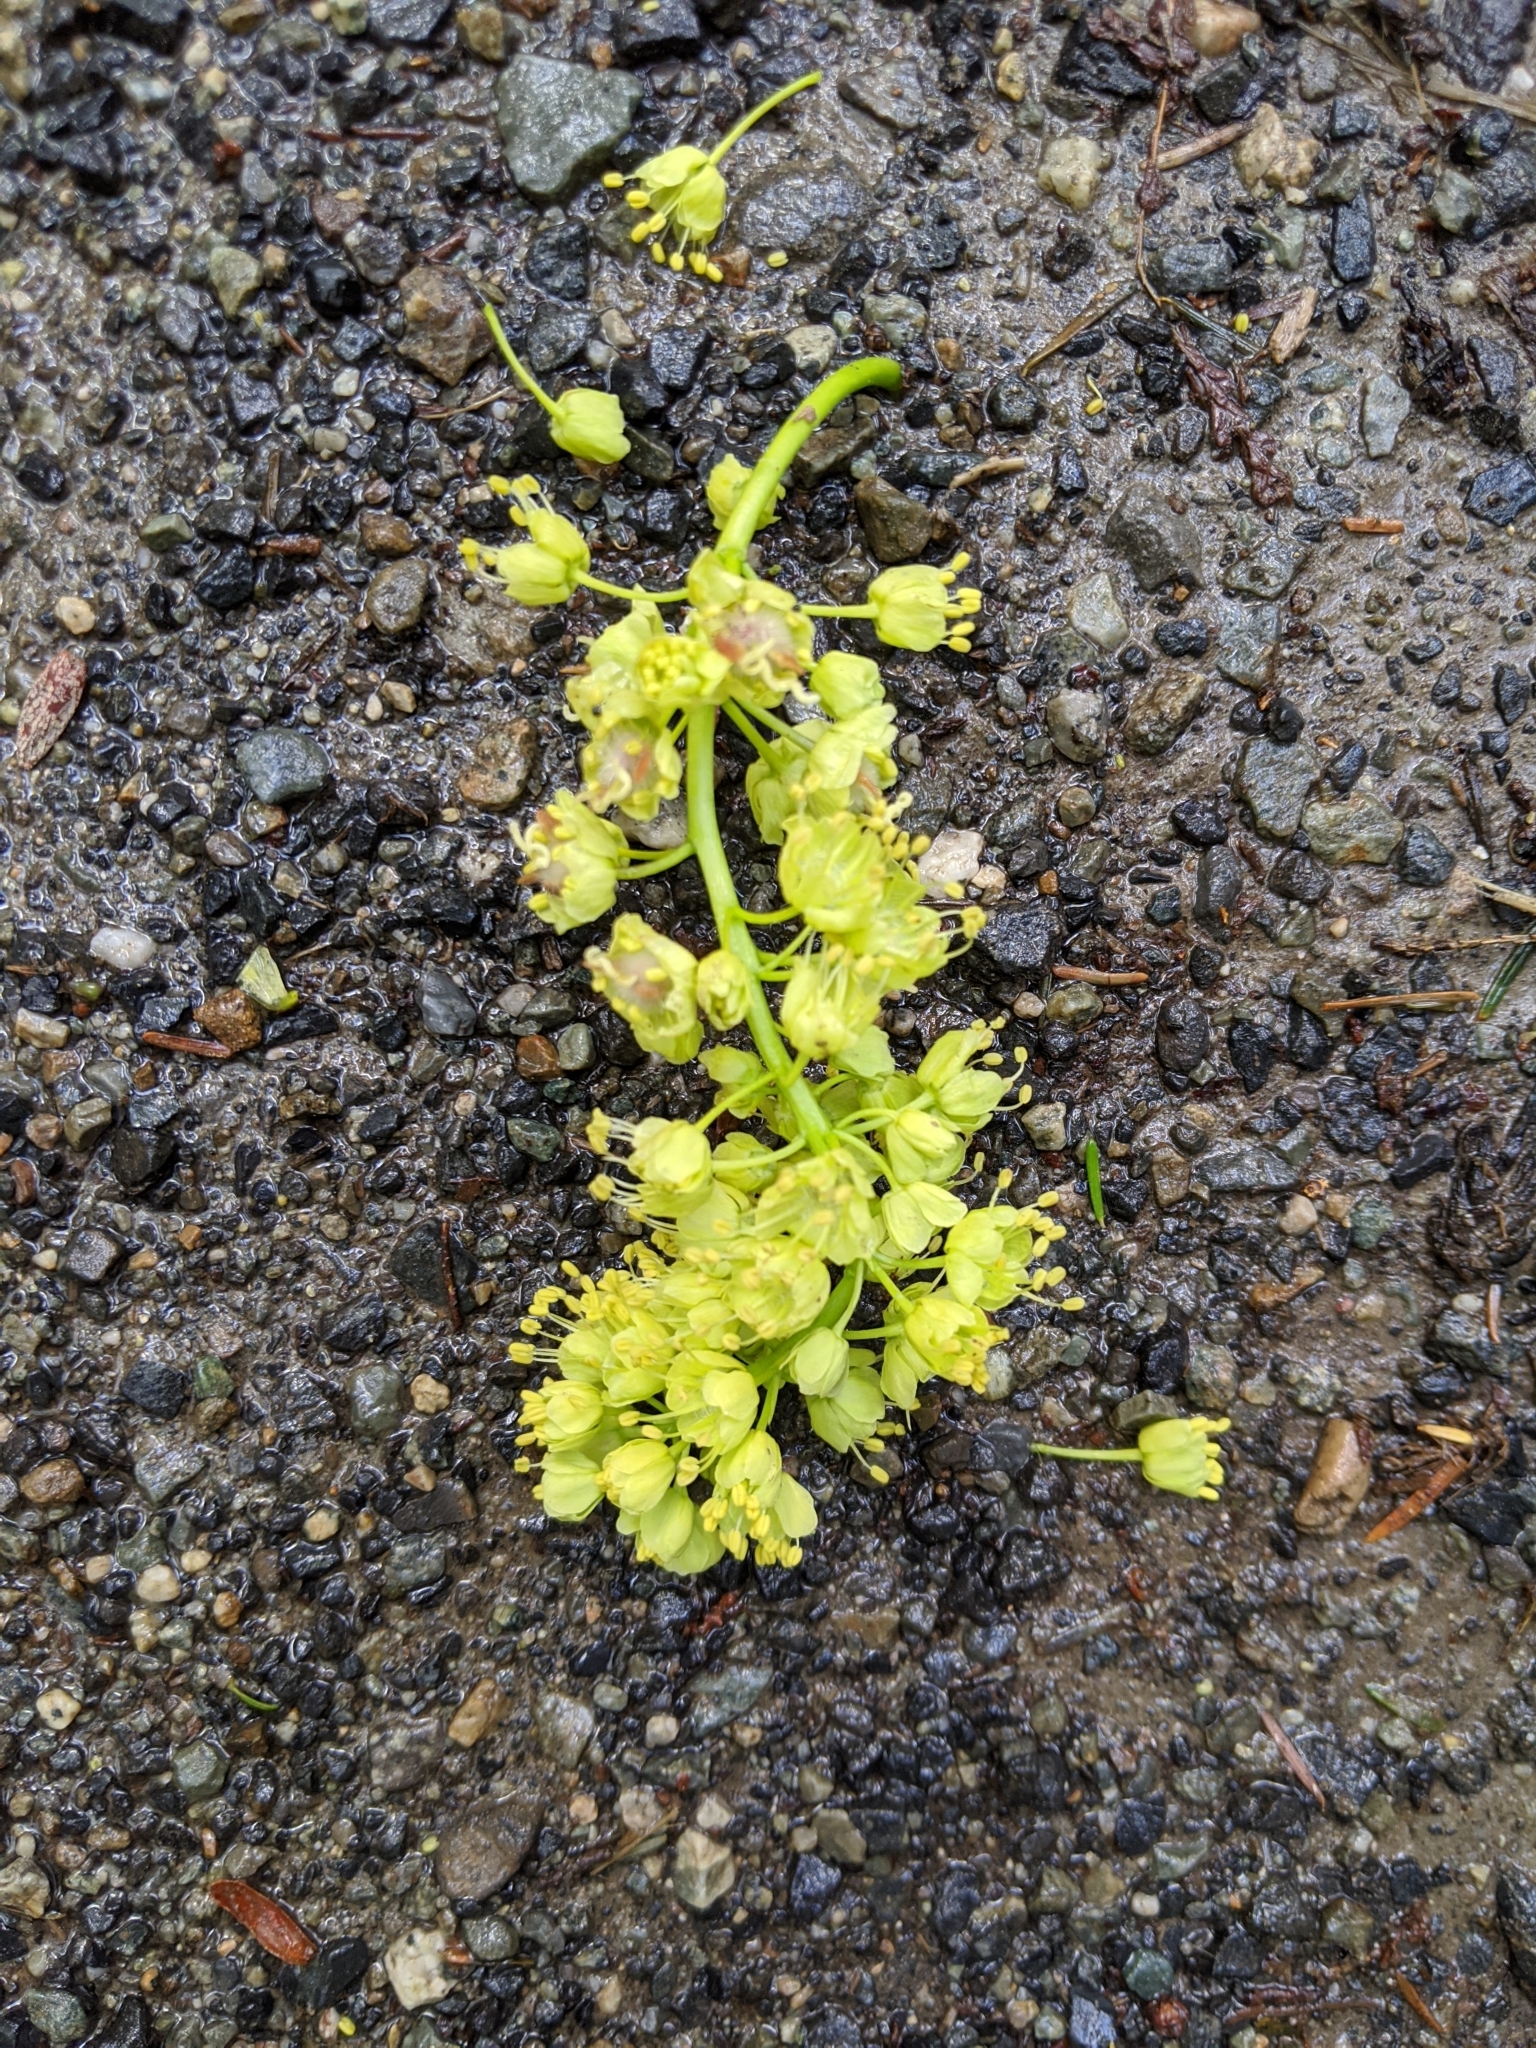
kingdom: Plantae
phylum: Tracheophyta
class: Magnoliopsida
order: Sapindales
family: Sapindaceae
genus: Acer
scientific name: Acer macrophyllum
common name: Oregon maple
